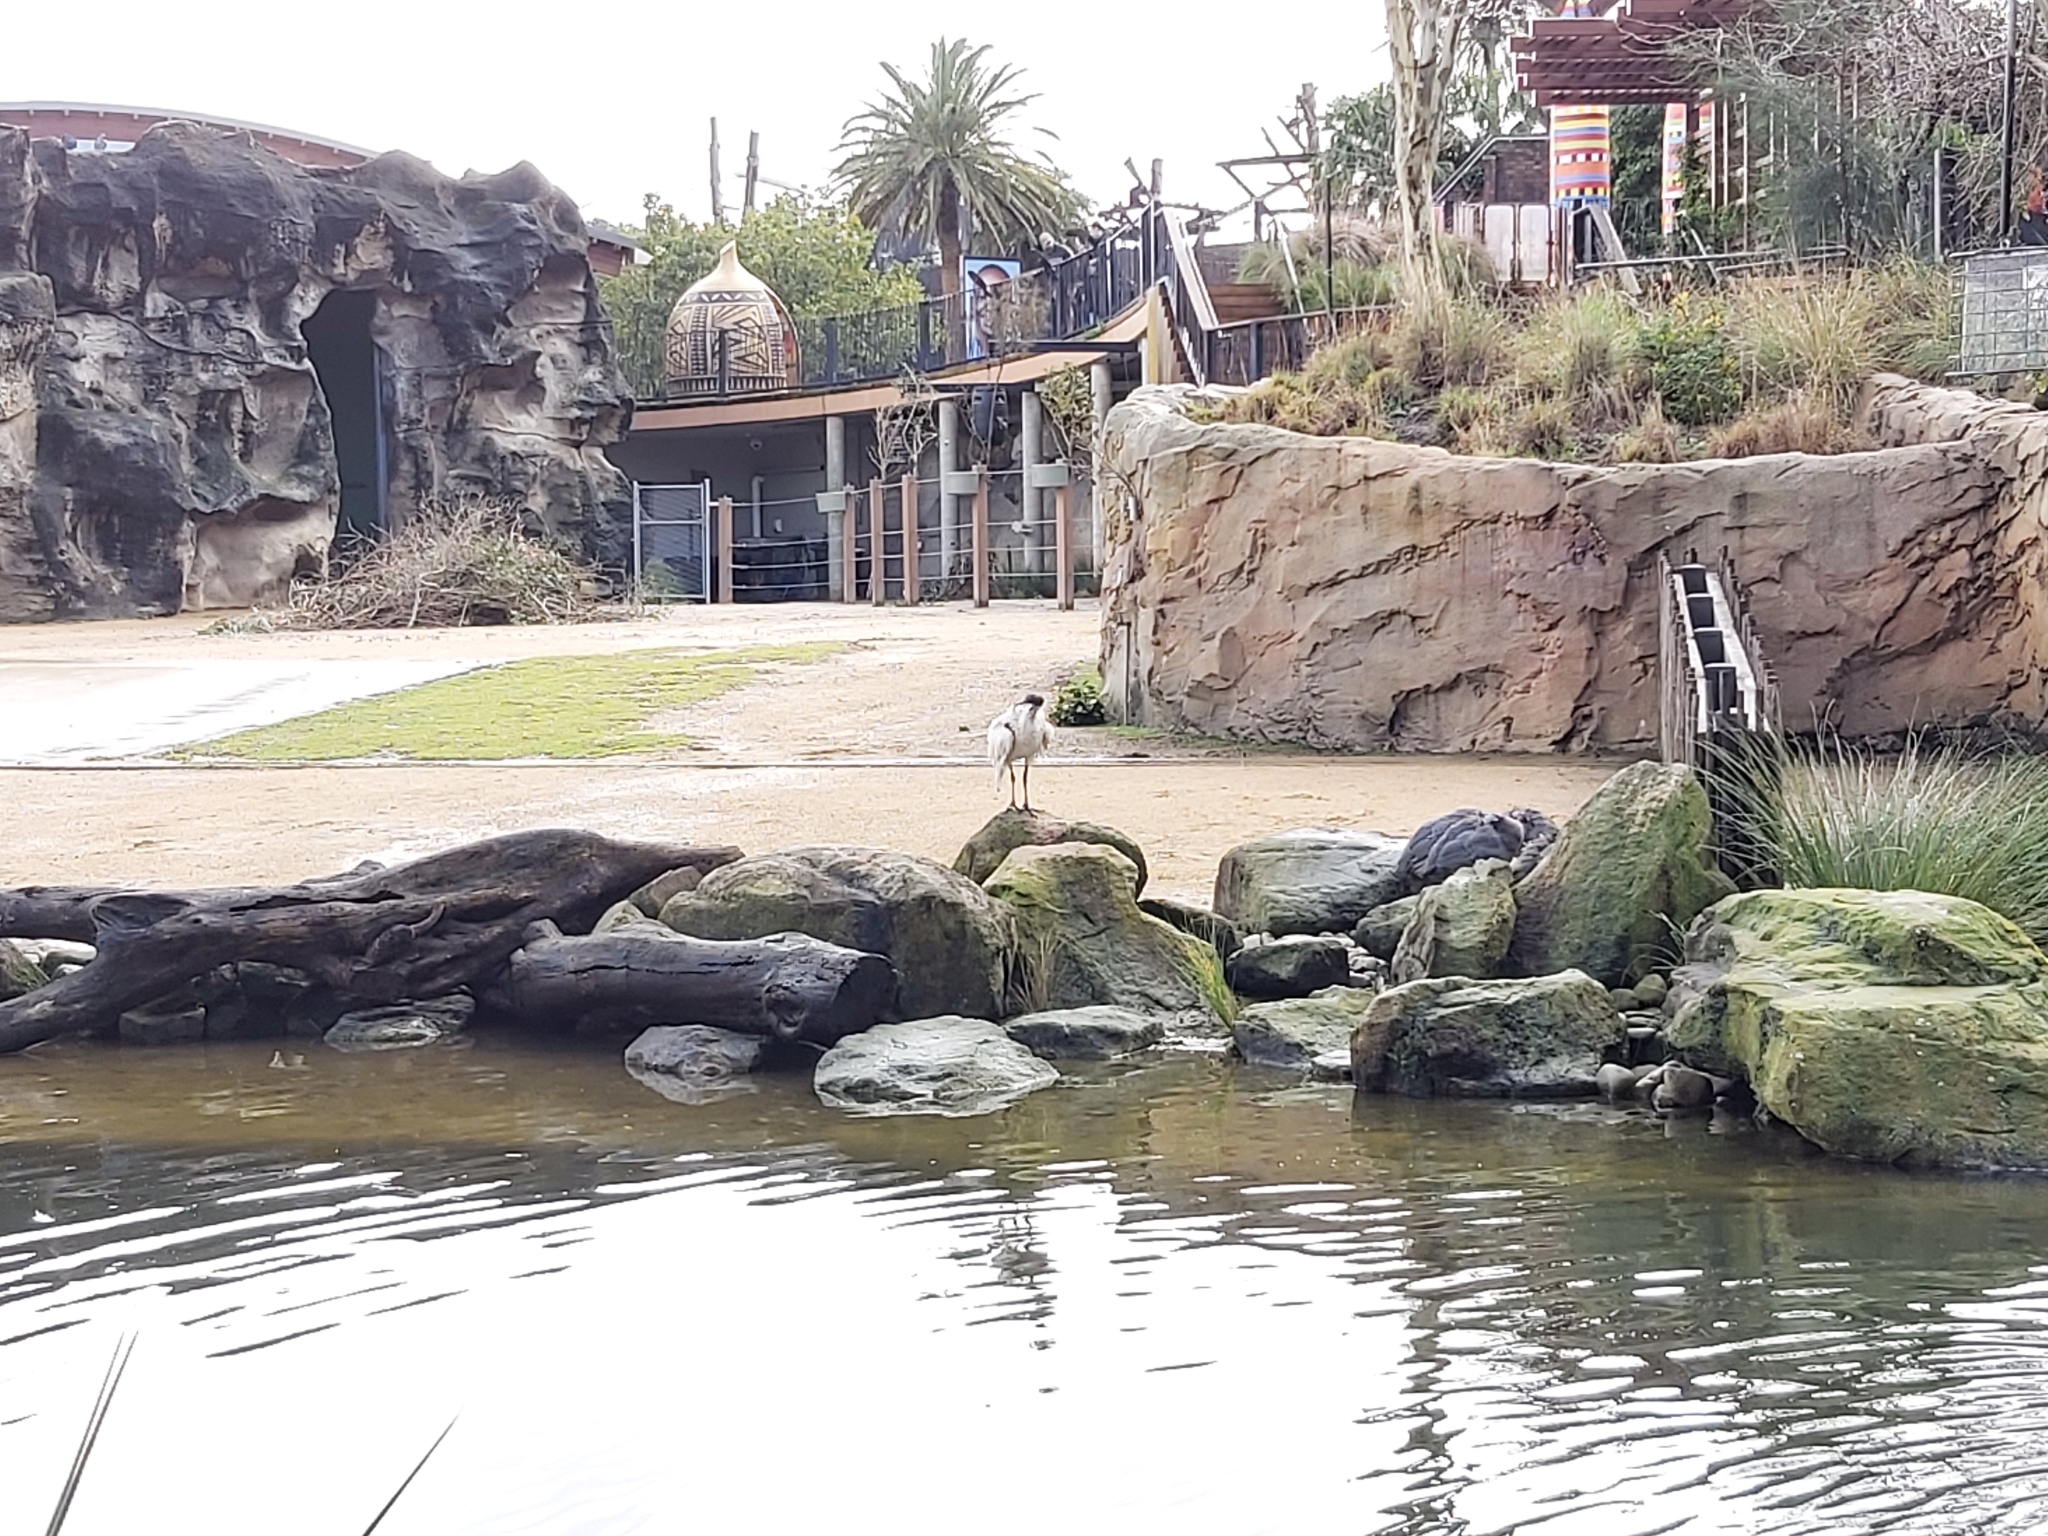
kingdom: Animalia
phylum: Chordata
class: Aves
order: Pelecaniformes
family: Threskiornithidae
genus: Threskiornis
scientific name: Threskiornis molucca
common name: Australian white ibis
